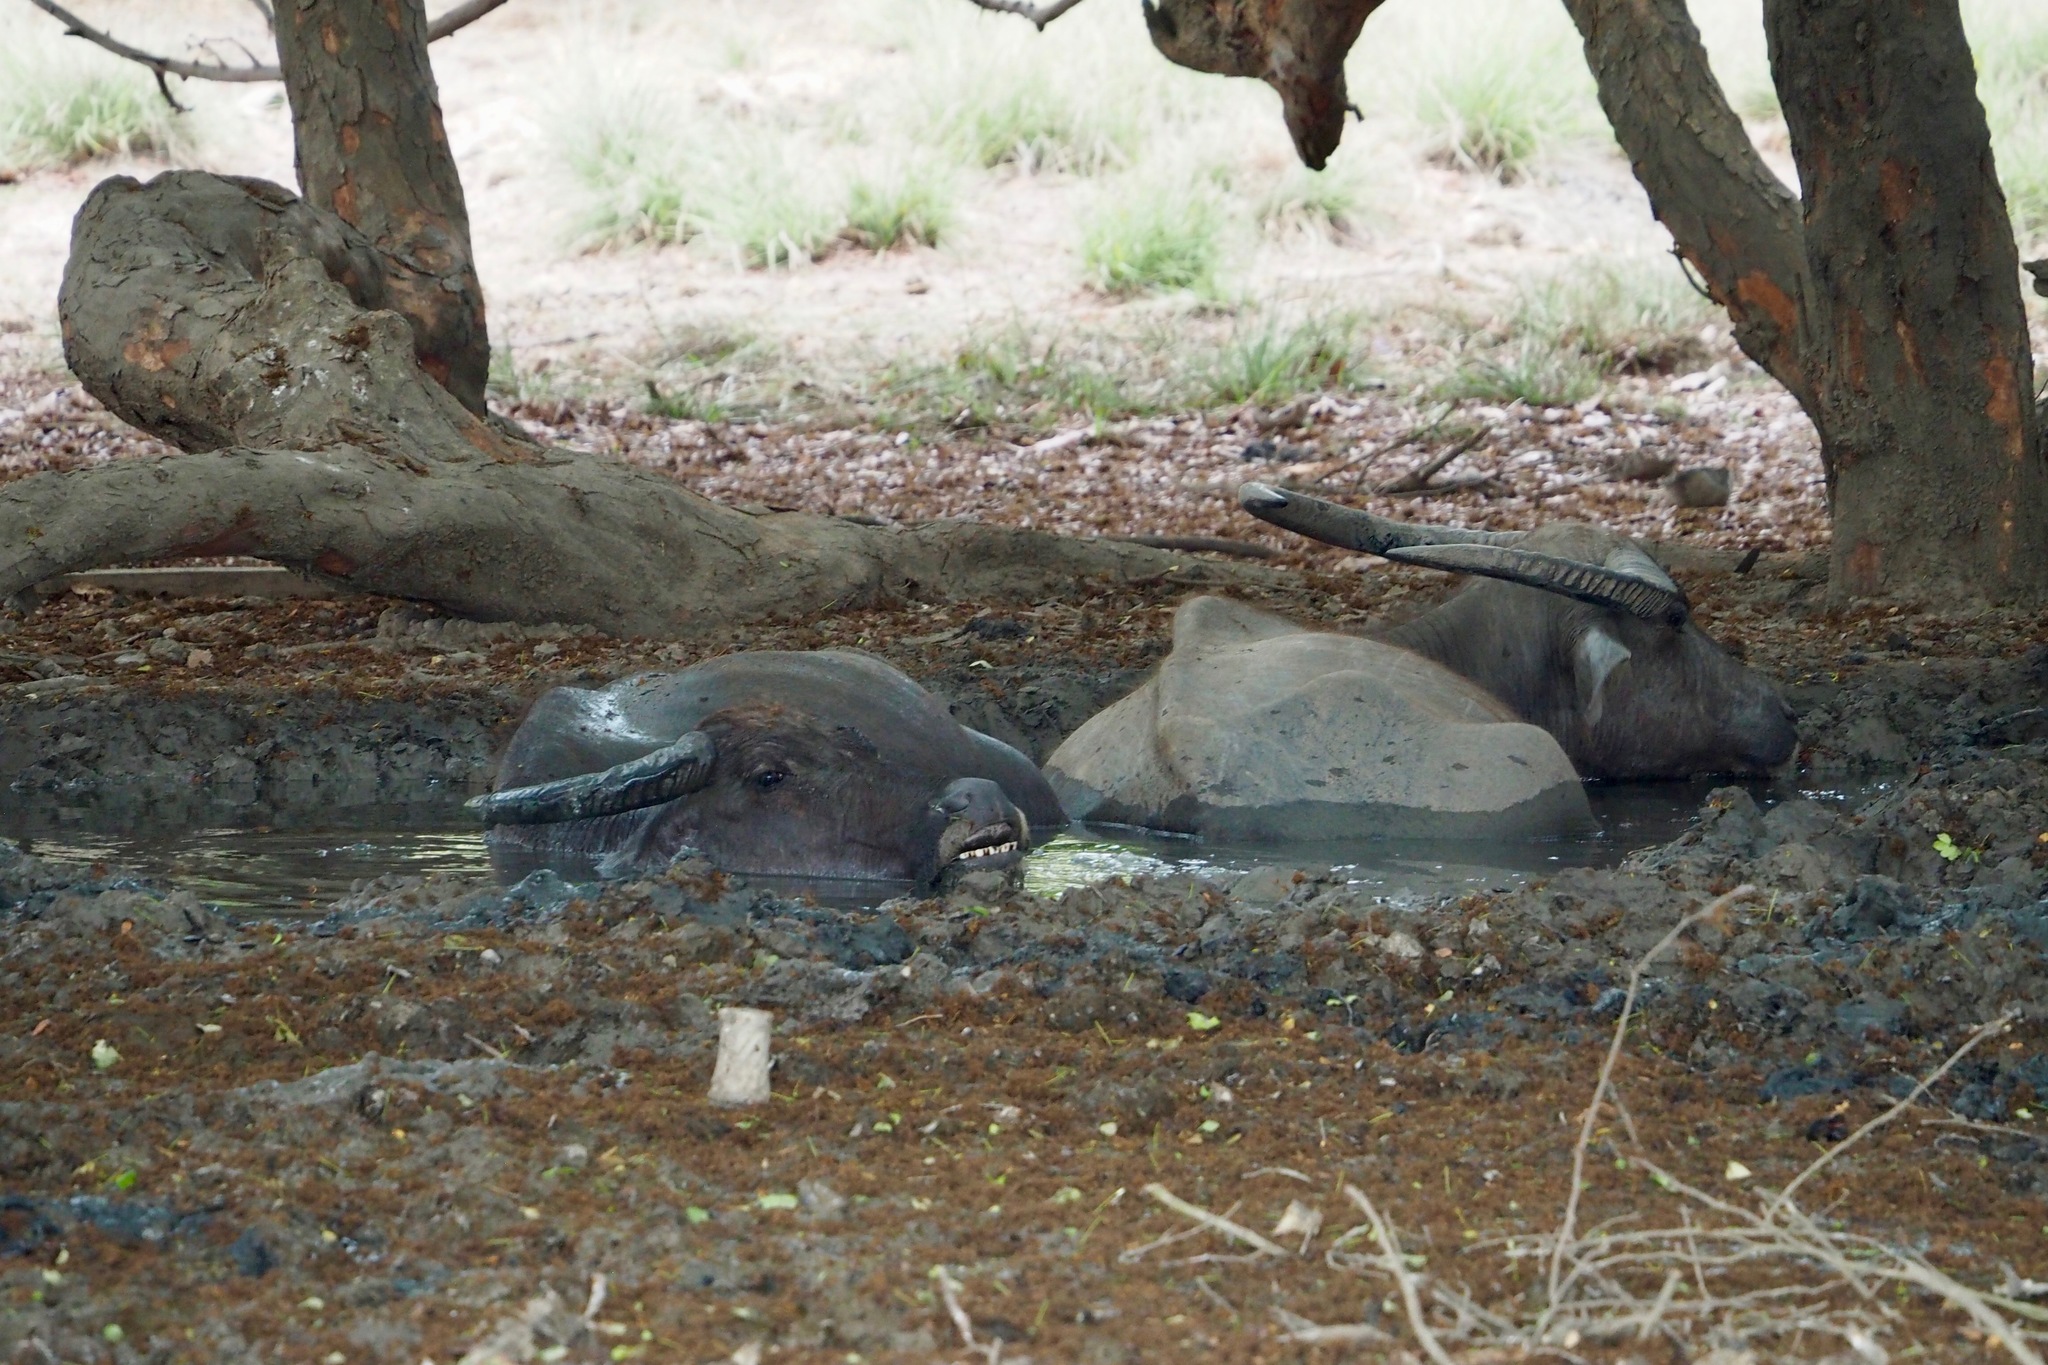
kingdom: Animalia
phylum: Chordata
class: Mammalia
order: Artiodactyla
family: Bovidae
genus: Bubalus
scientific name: Bubalus bubalis
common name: Water buffalo
